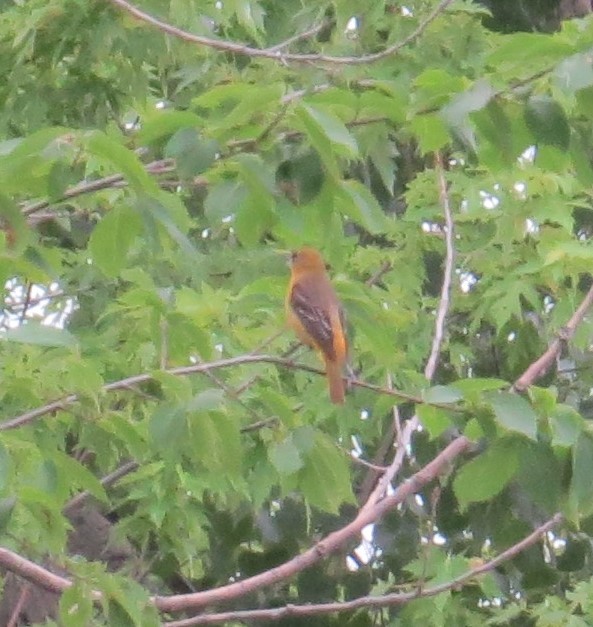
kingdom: Animalia
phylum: Chordata
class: Aves
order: Passeriformes
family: Icteridae
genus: Icterus
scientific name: Icterus galbula
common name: Baltimore oriole
